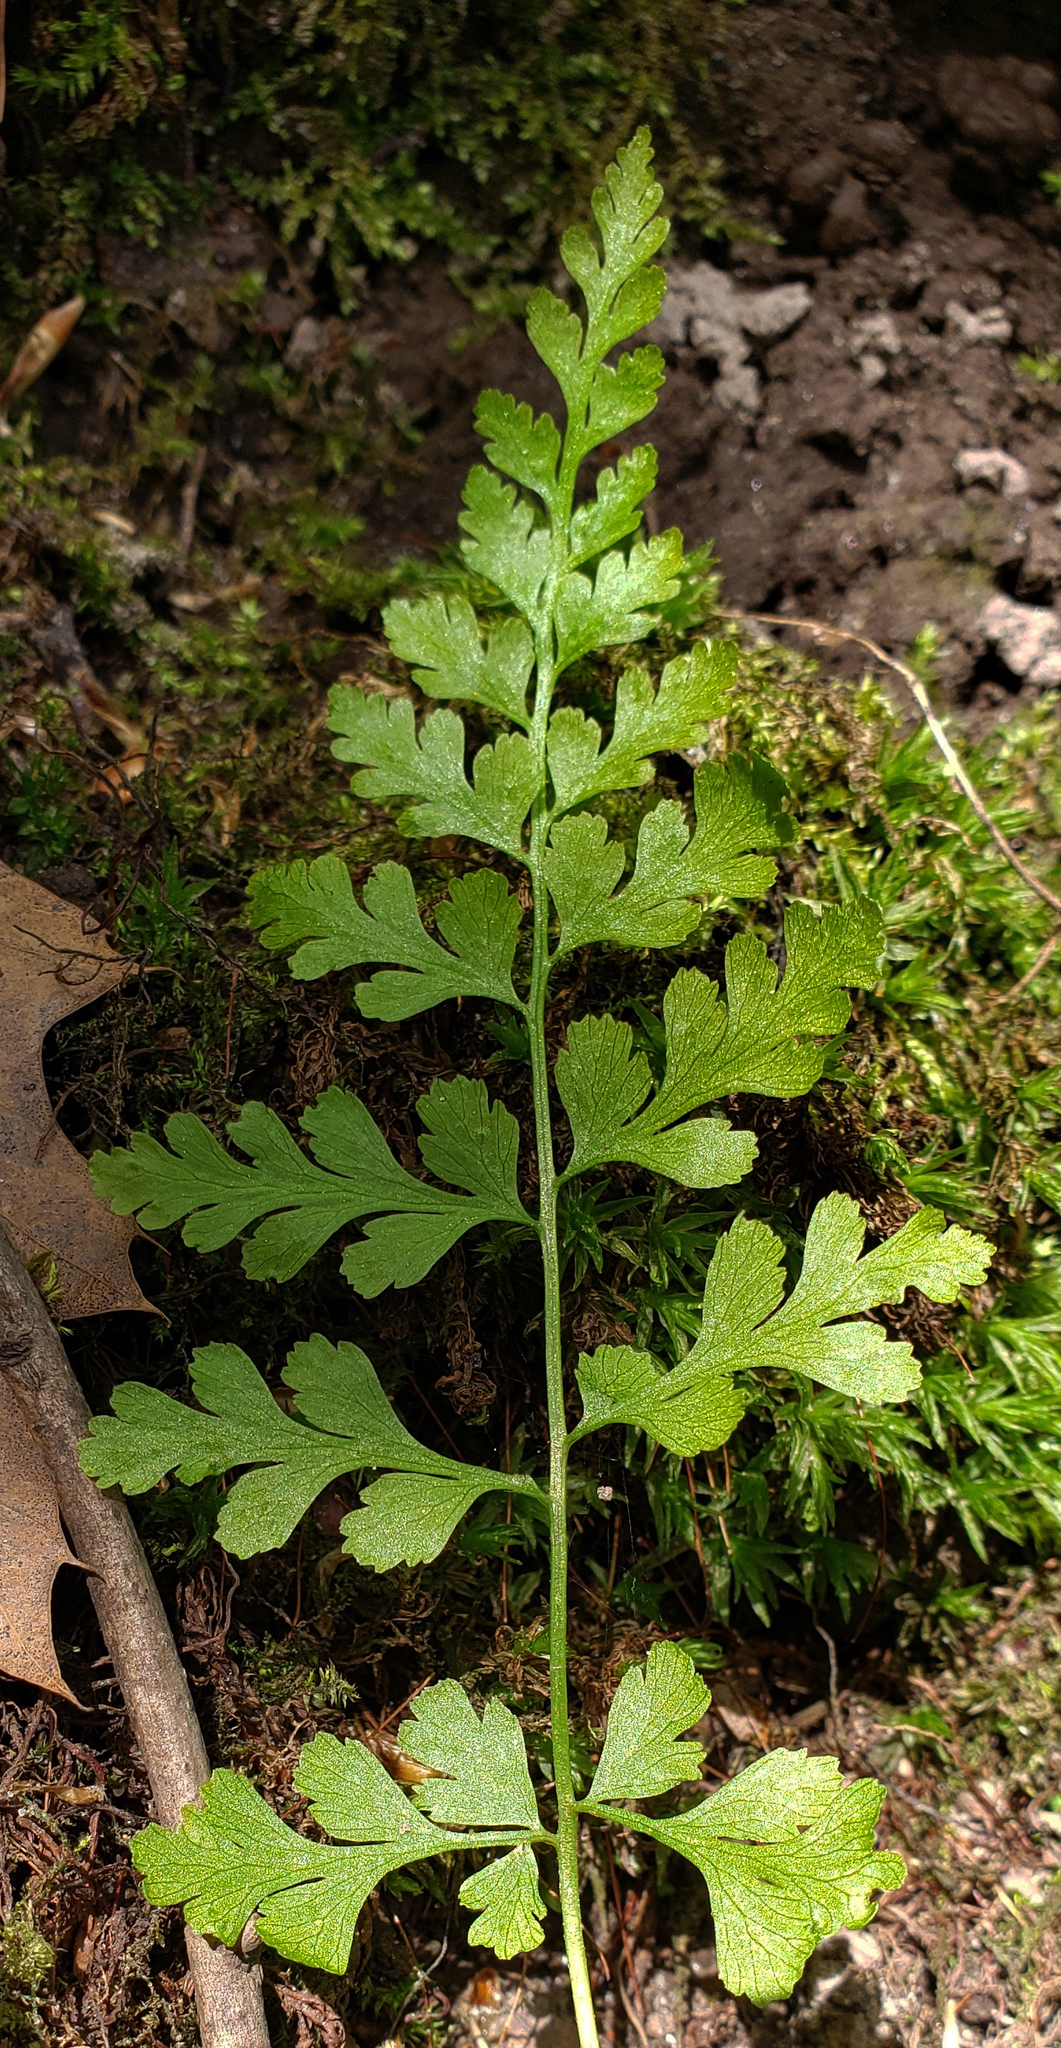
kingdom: Plantae
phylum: Tracheophyta
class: Polypodiopsida
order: Polypodiales
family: Cystopteridaceae
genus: Cystopteris
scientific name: Cystopteris protrusa
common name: Lowland brittle fern
